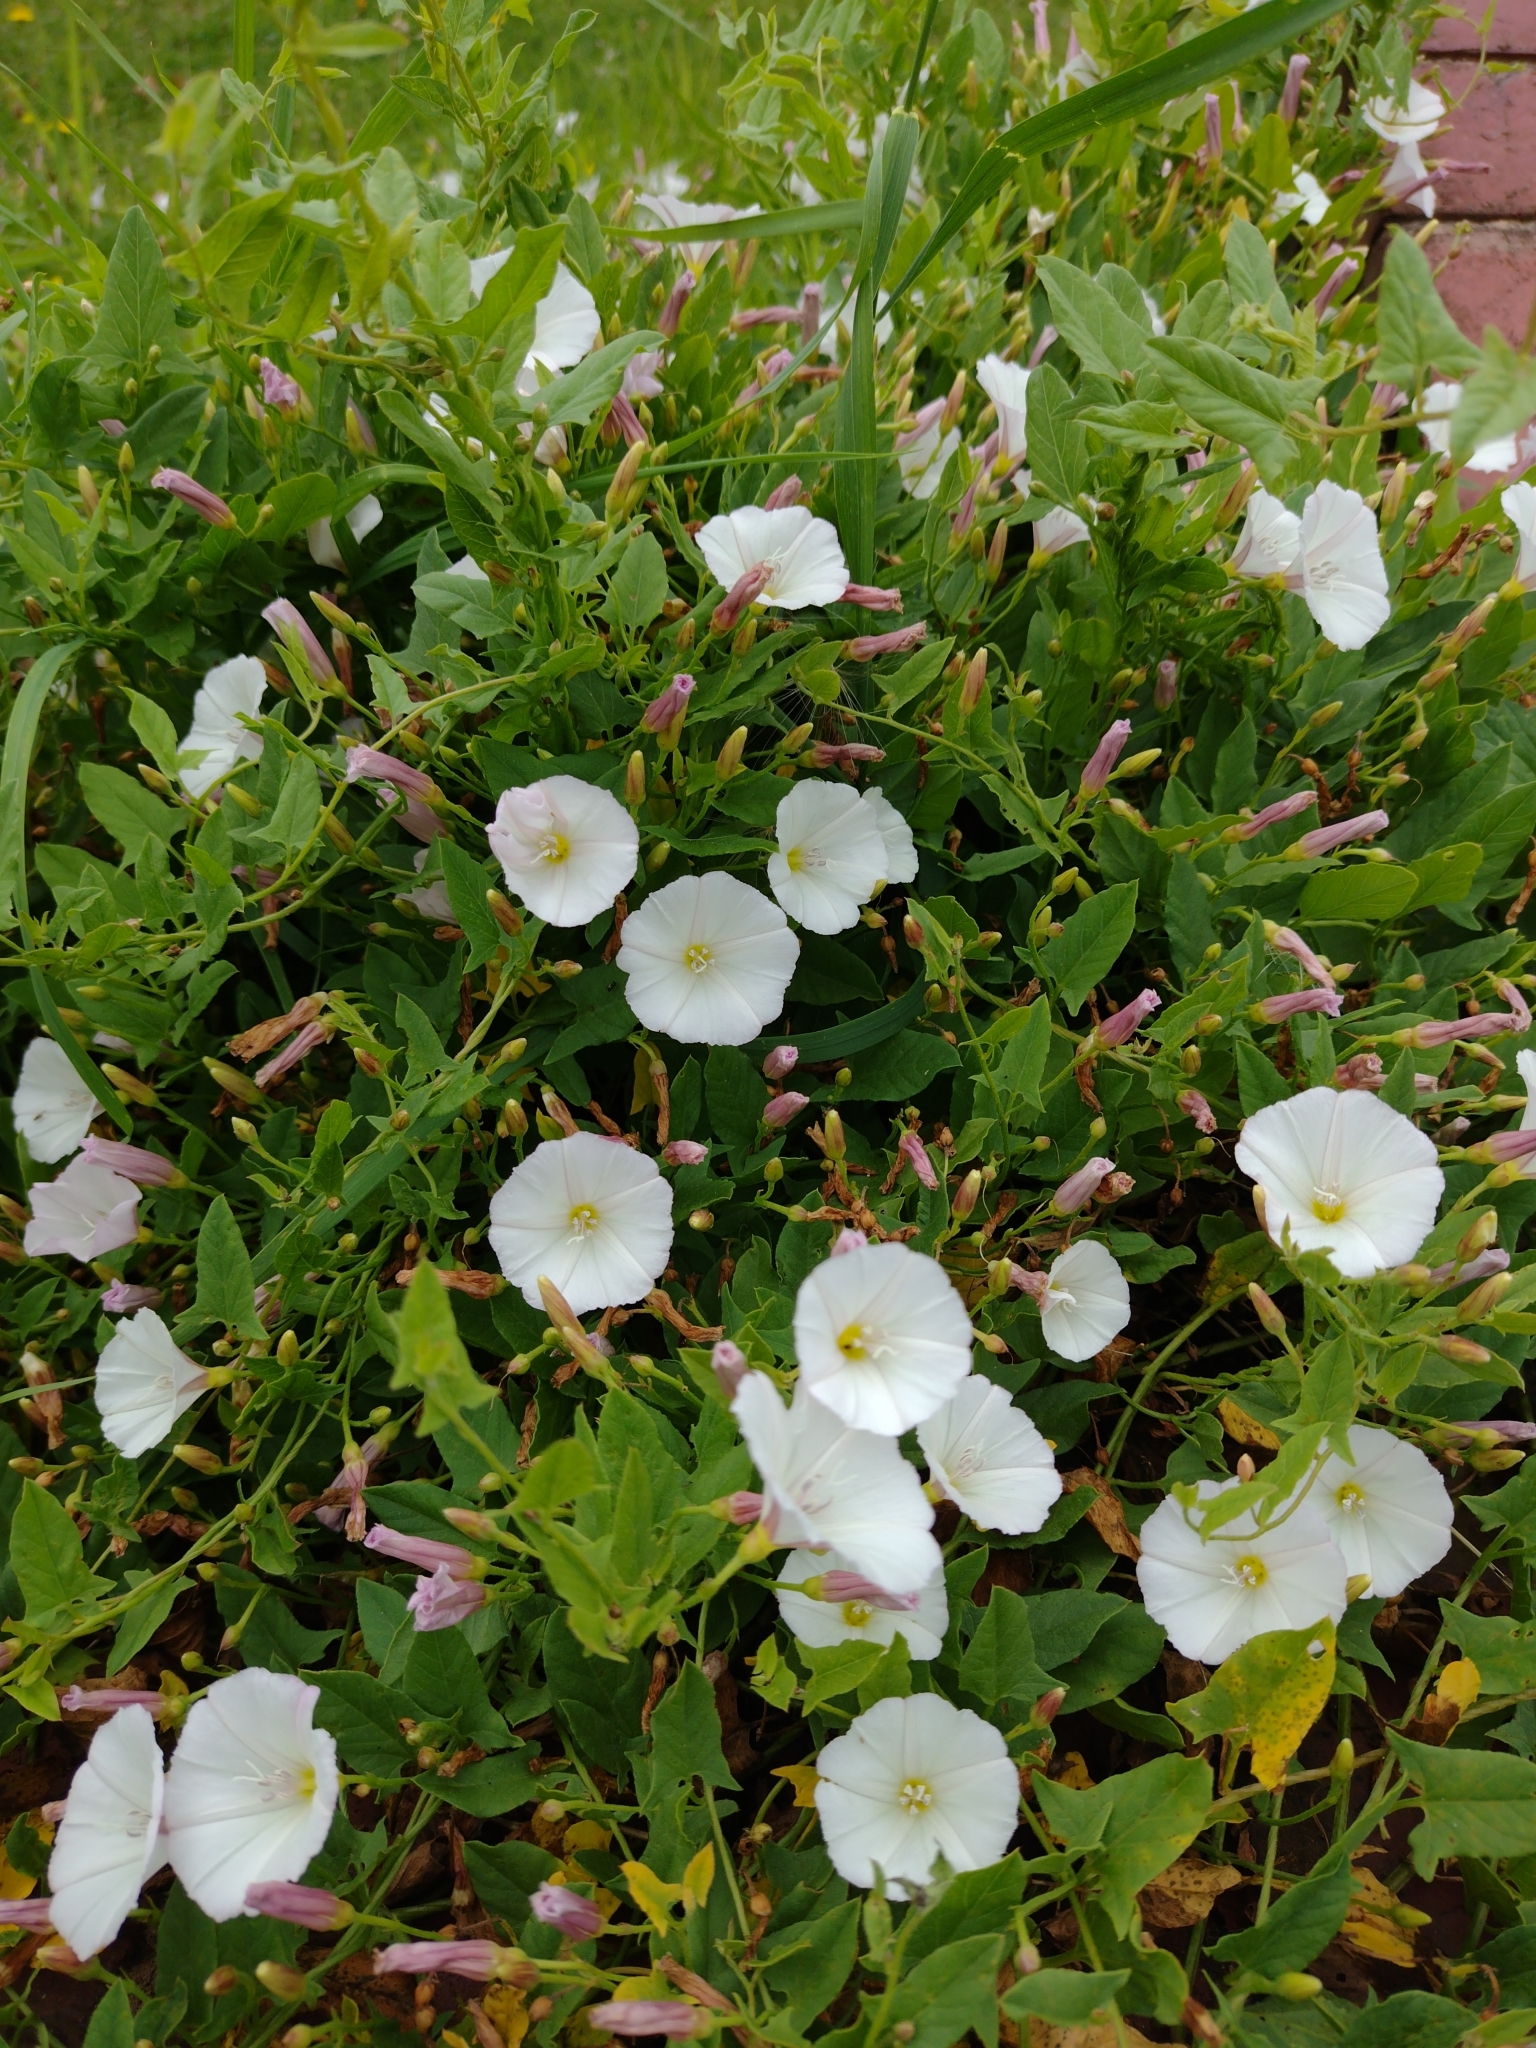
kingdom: Plantae
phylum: Tracheophyta
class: Magnoliopsida
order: Solanales
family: Convolvulaceae
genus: Convolvulus
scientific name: Convolvulus arvensis
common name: Field bindweed
